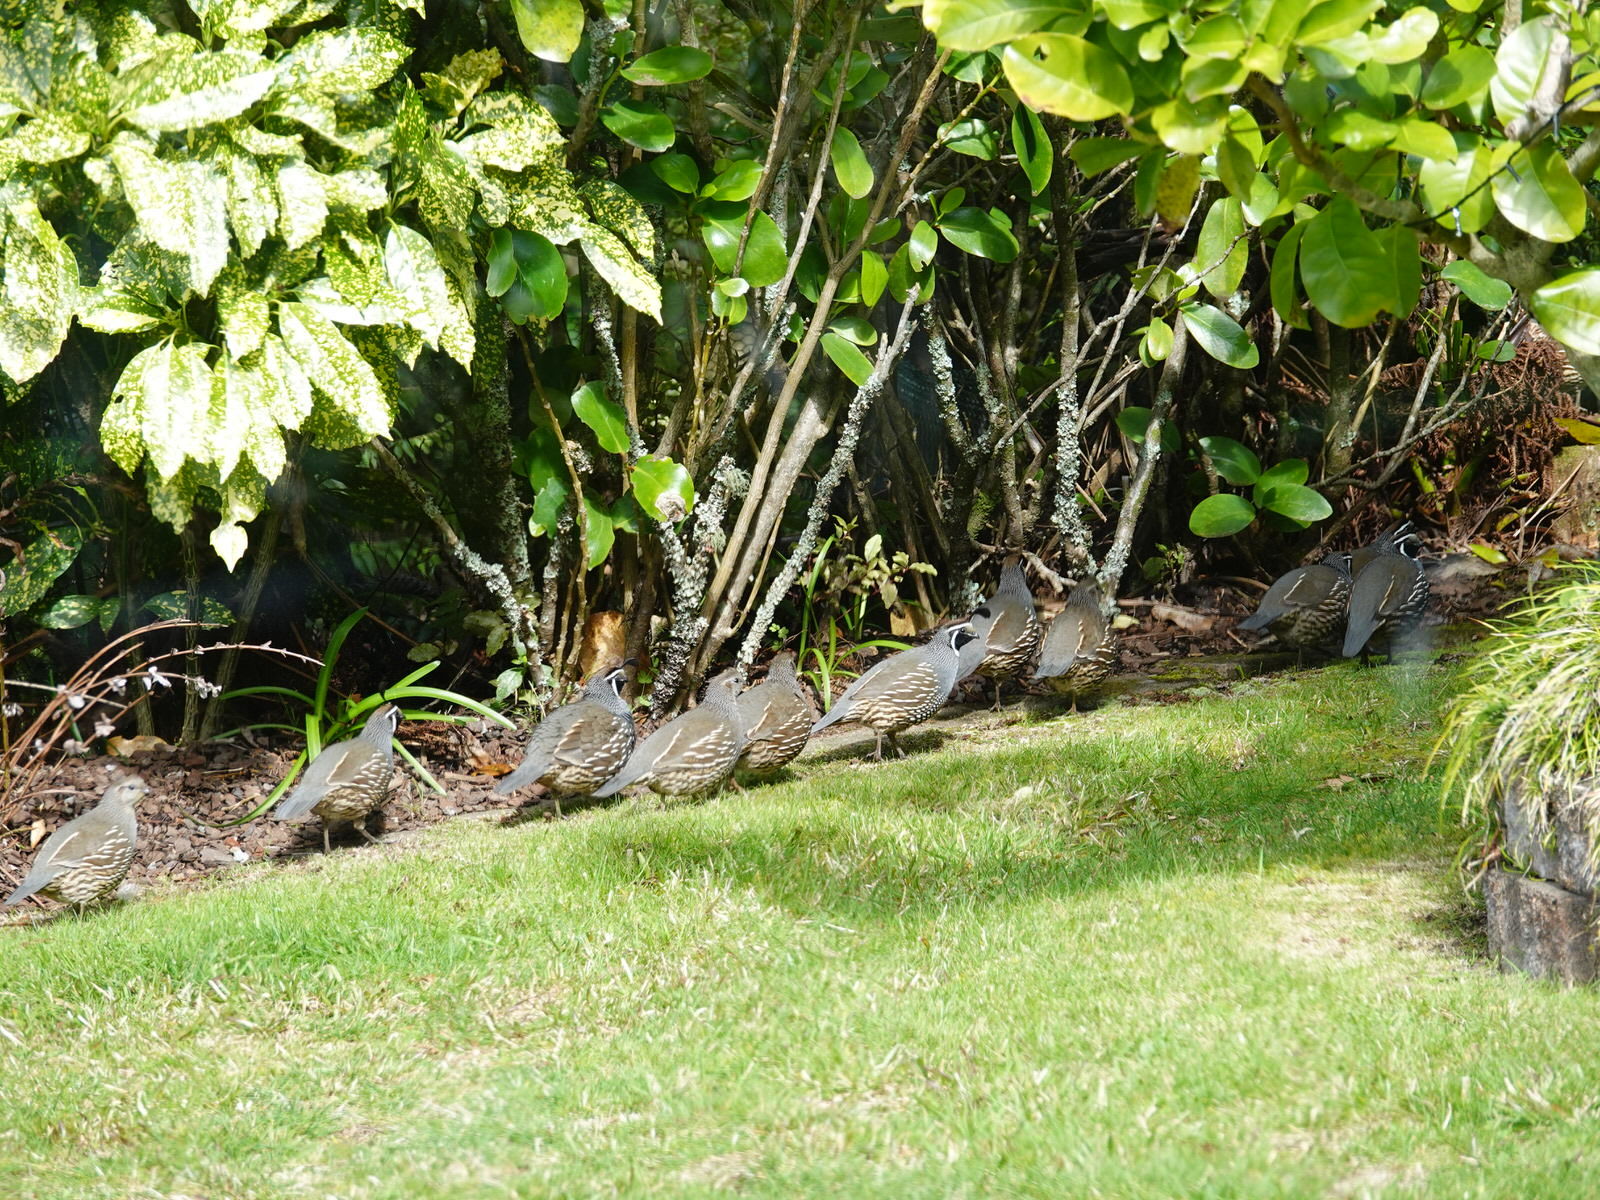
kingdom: Animalia
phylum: Chordata
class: Aves
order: Galliformes
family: Odontophoridae
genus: Callipepla
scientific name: Callipepla californica
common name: California quail
